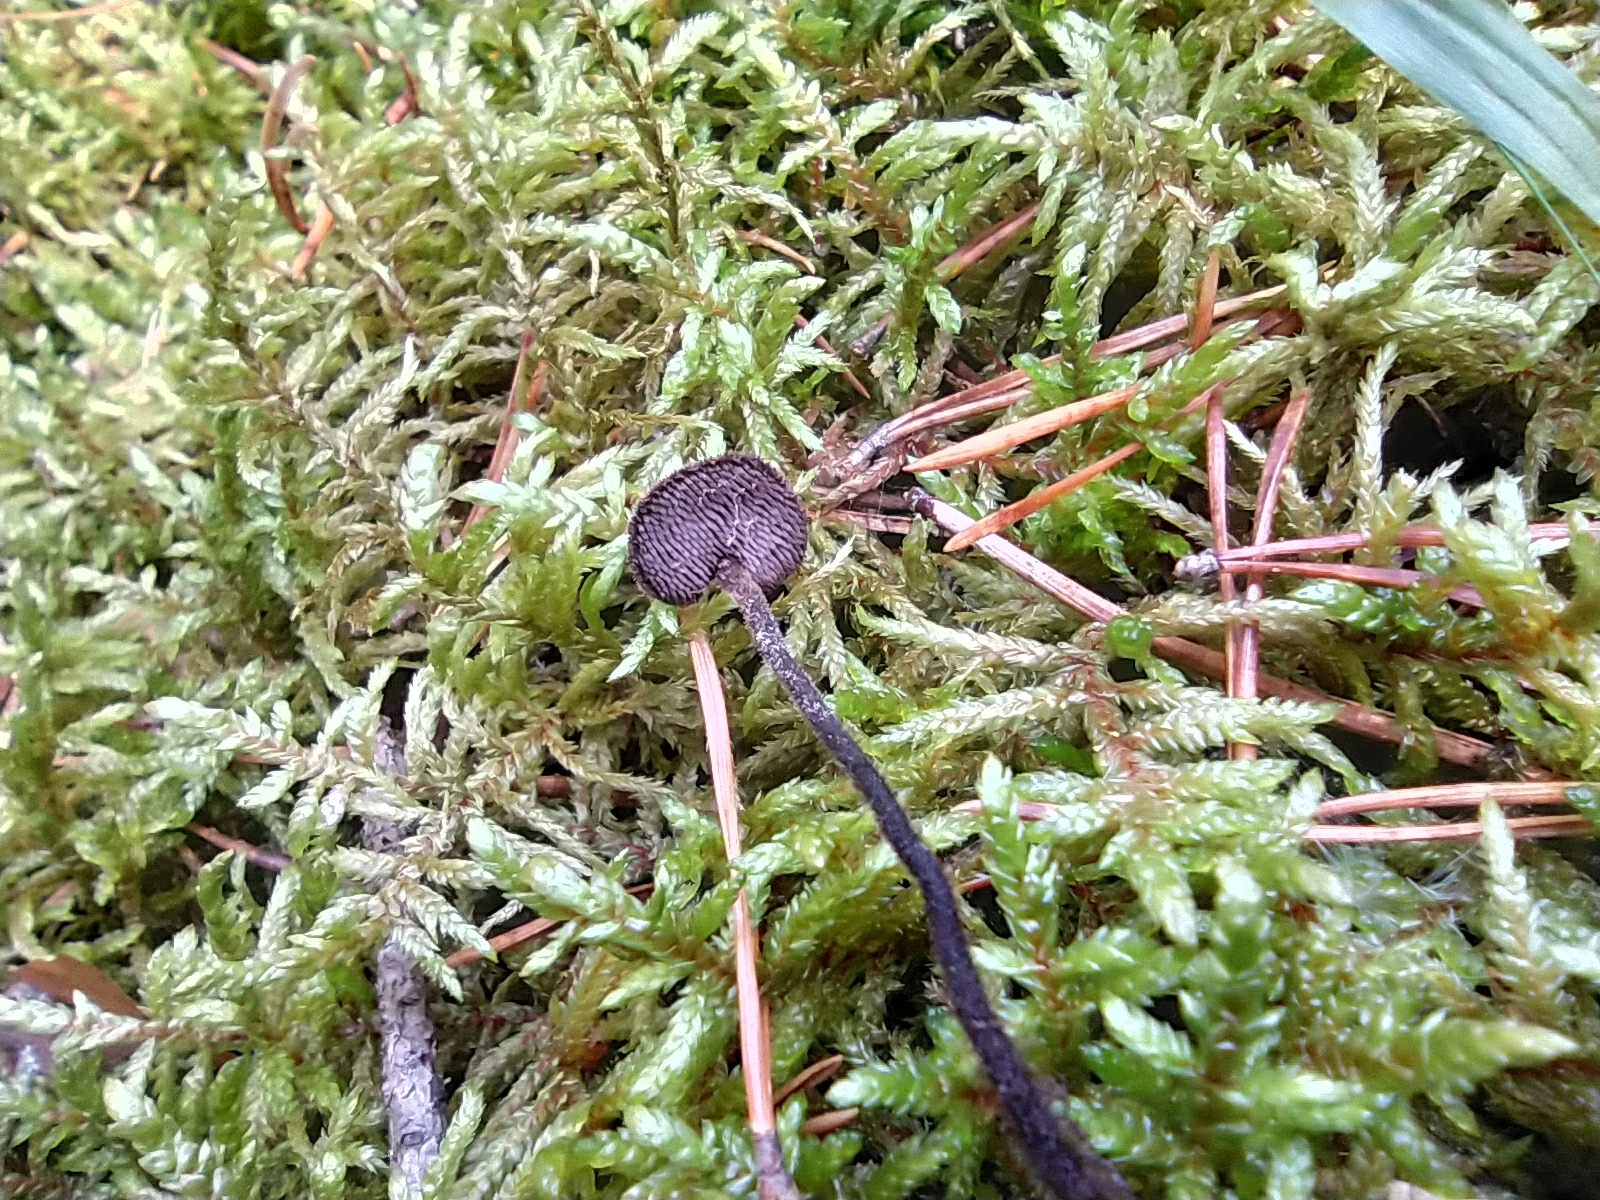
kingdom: Fungi
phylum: Basidiomycota
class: Agaricomycetes
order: Russulales
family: Auriscalpiaceae
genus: Auriscalpium
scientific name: Auriscalpium vulgare
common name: Earpick fungus
